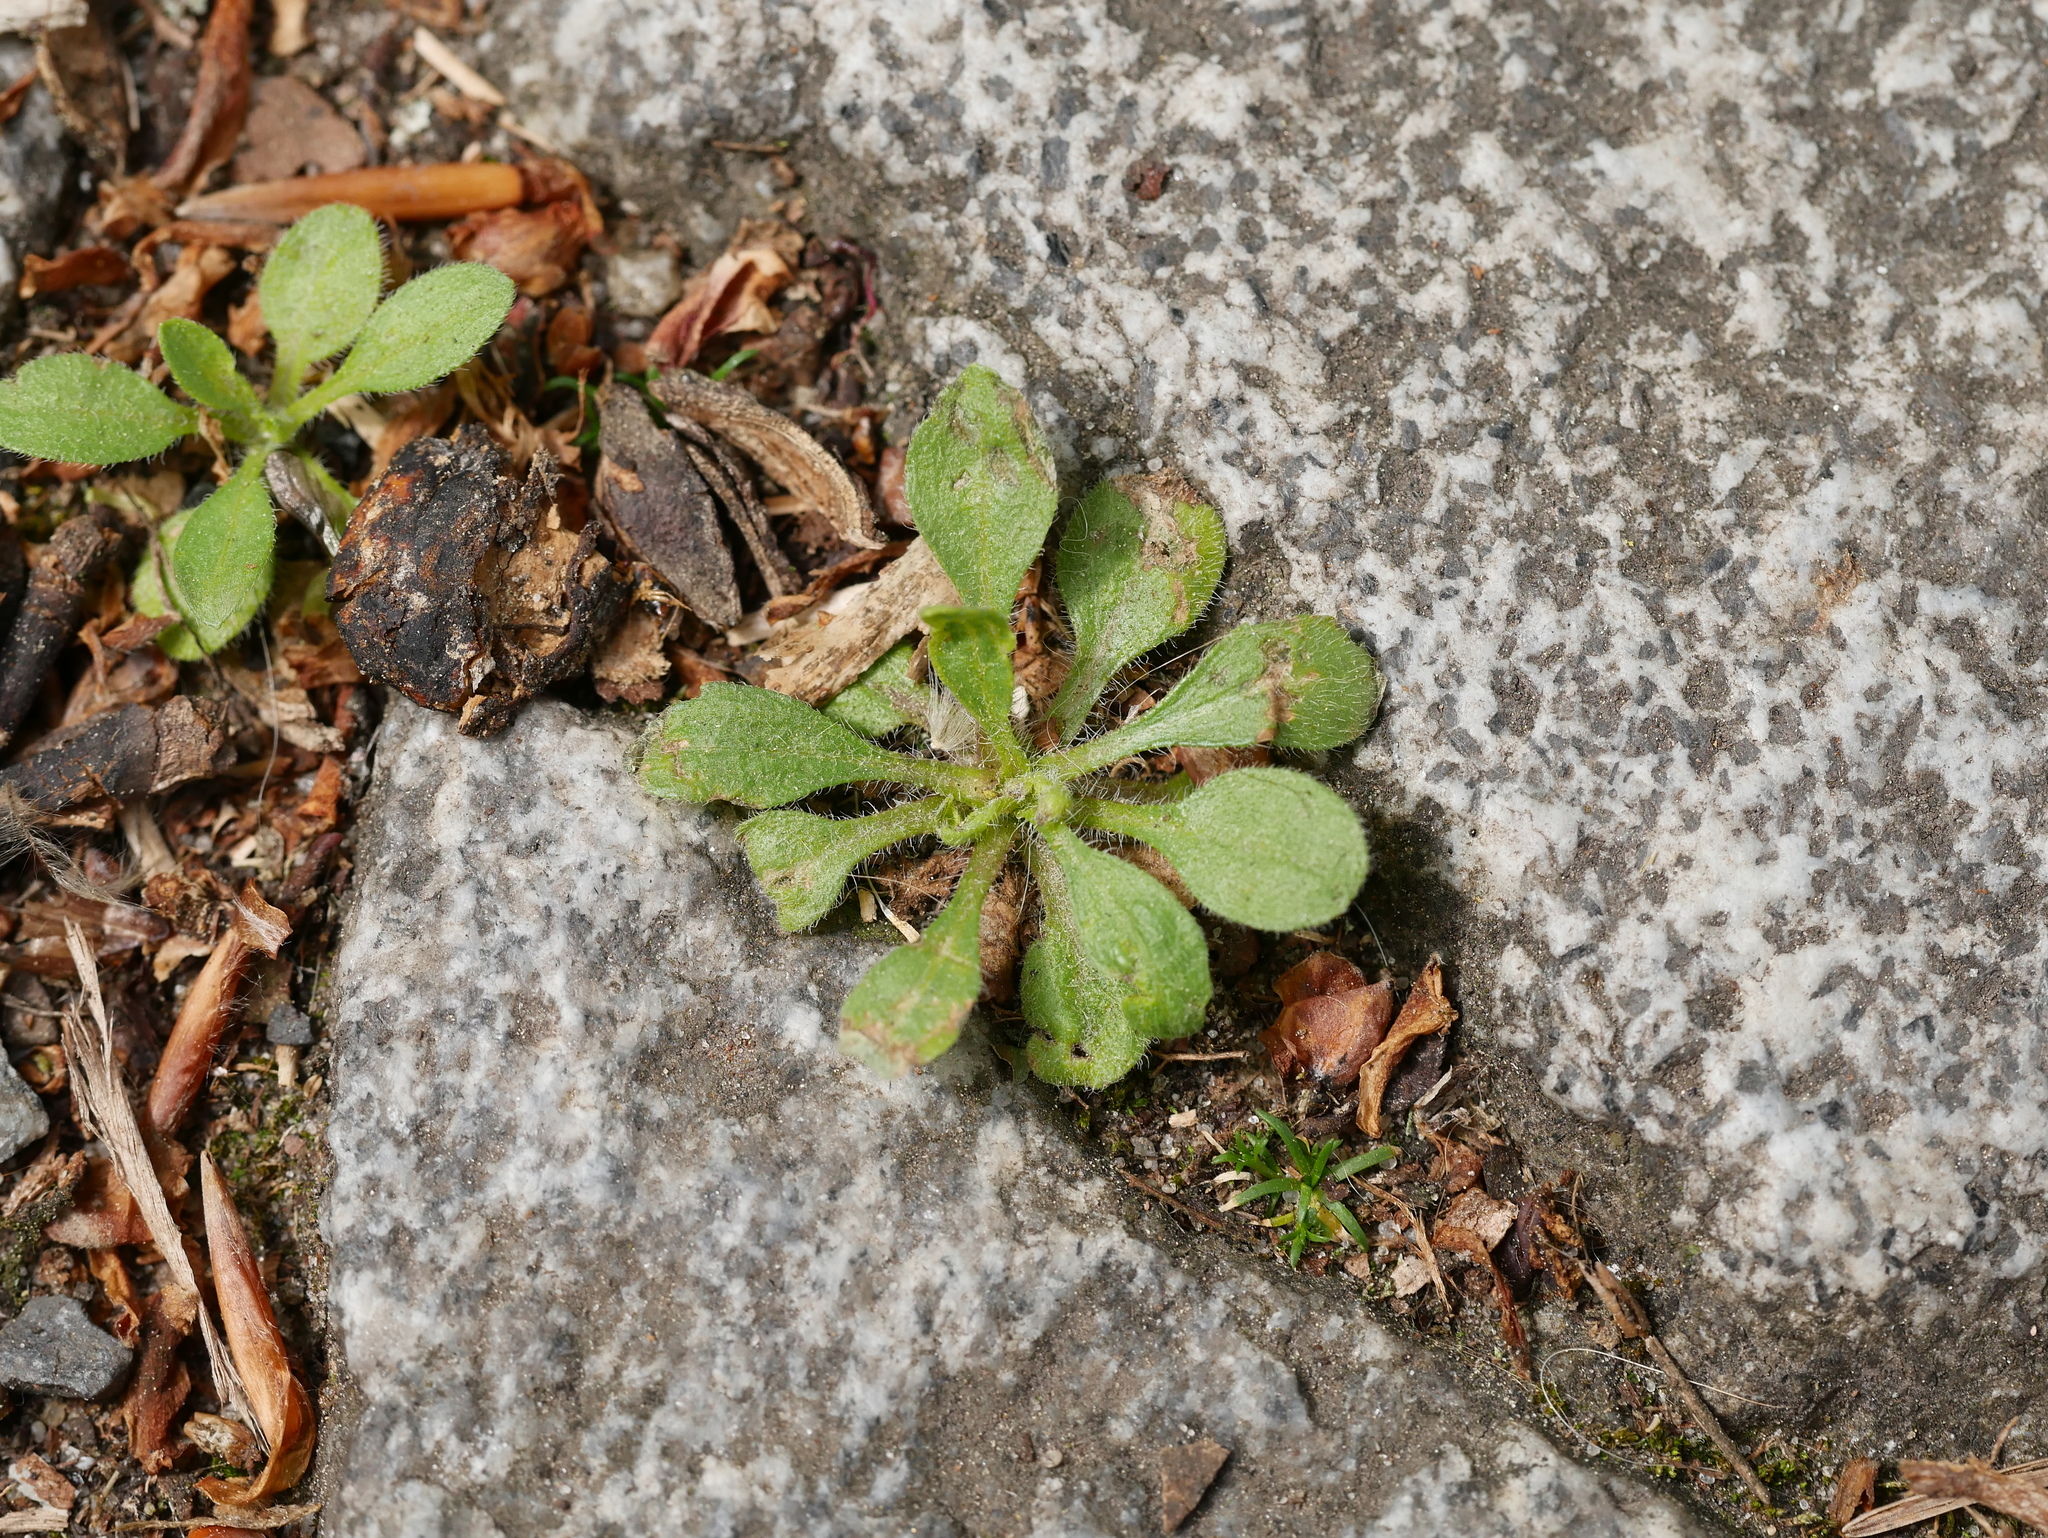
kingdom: Plantae
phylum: Tracheophyta
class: Magnoliopsida
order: Brassicales
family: Brassicaceae
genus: Arabidopsis
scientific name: Arabidopsis thaliana
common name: Thale cress
